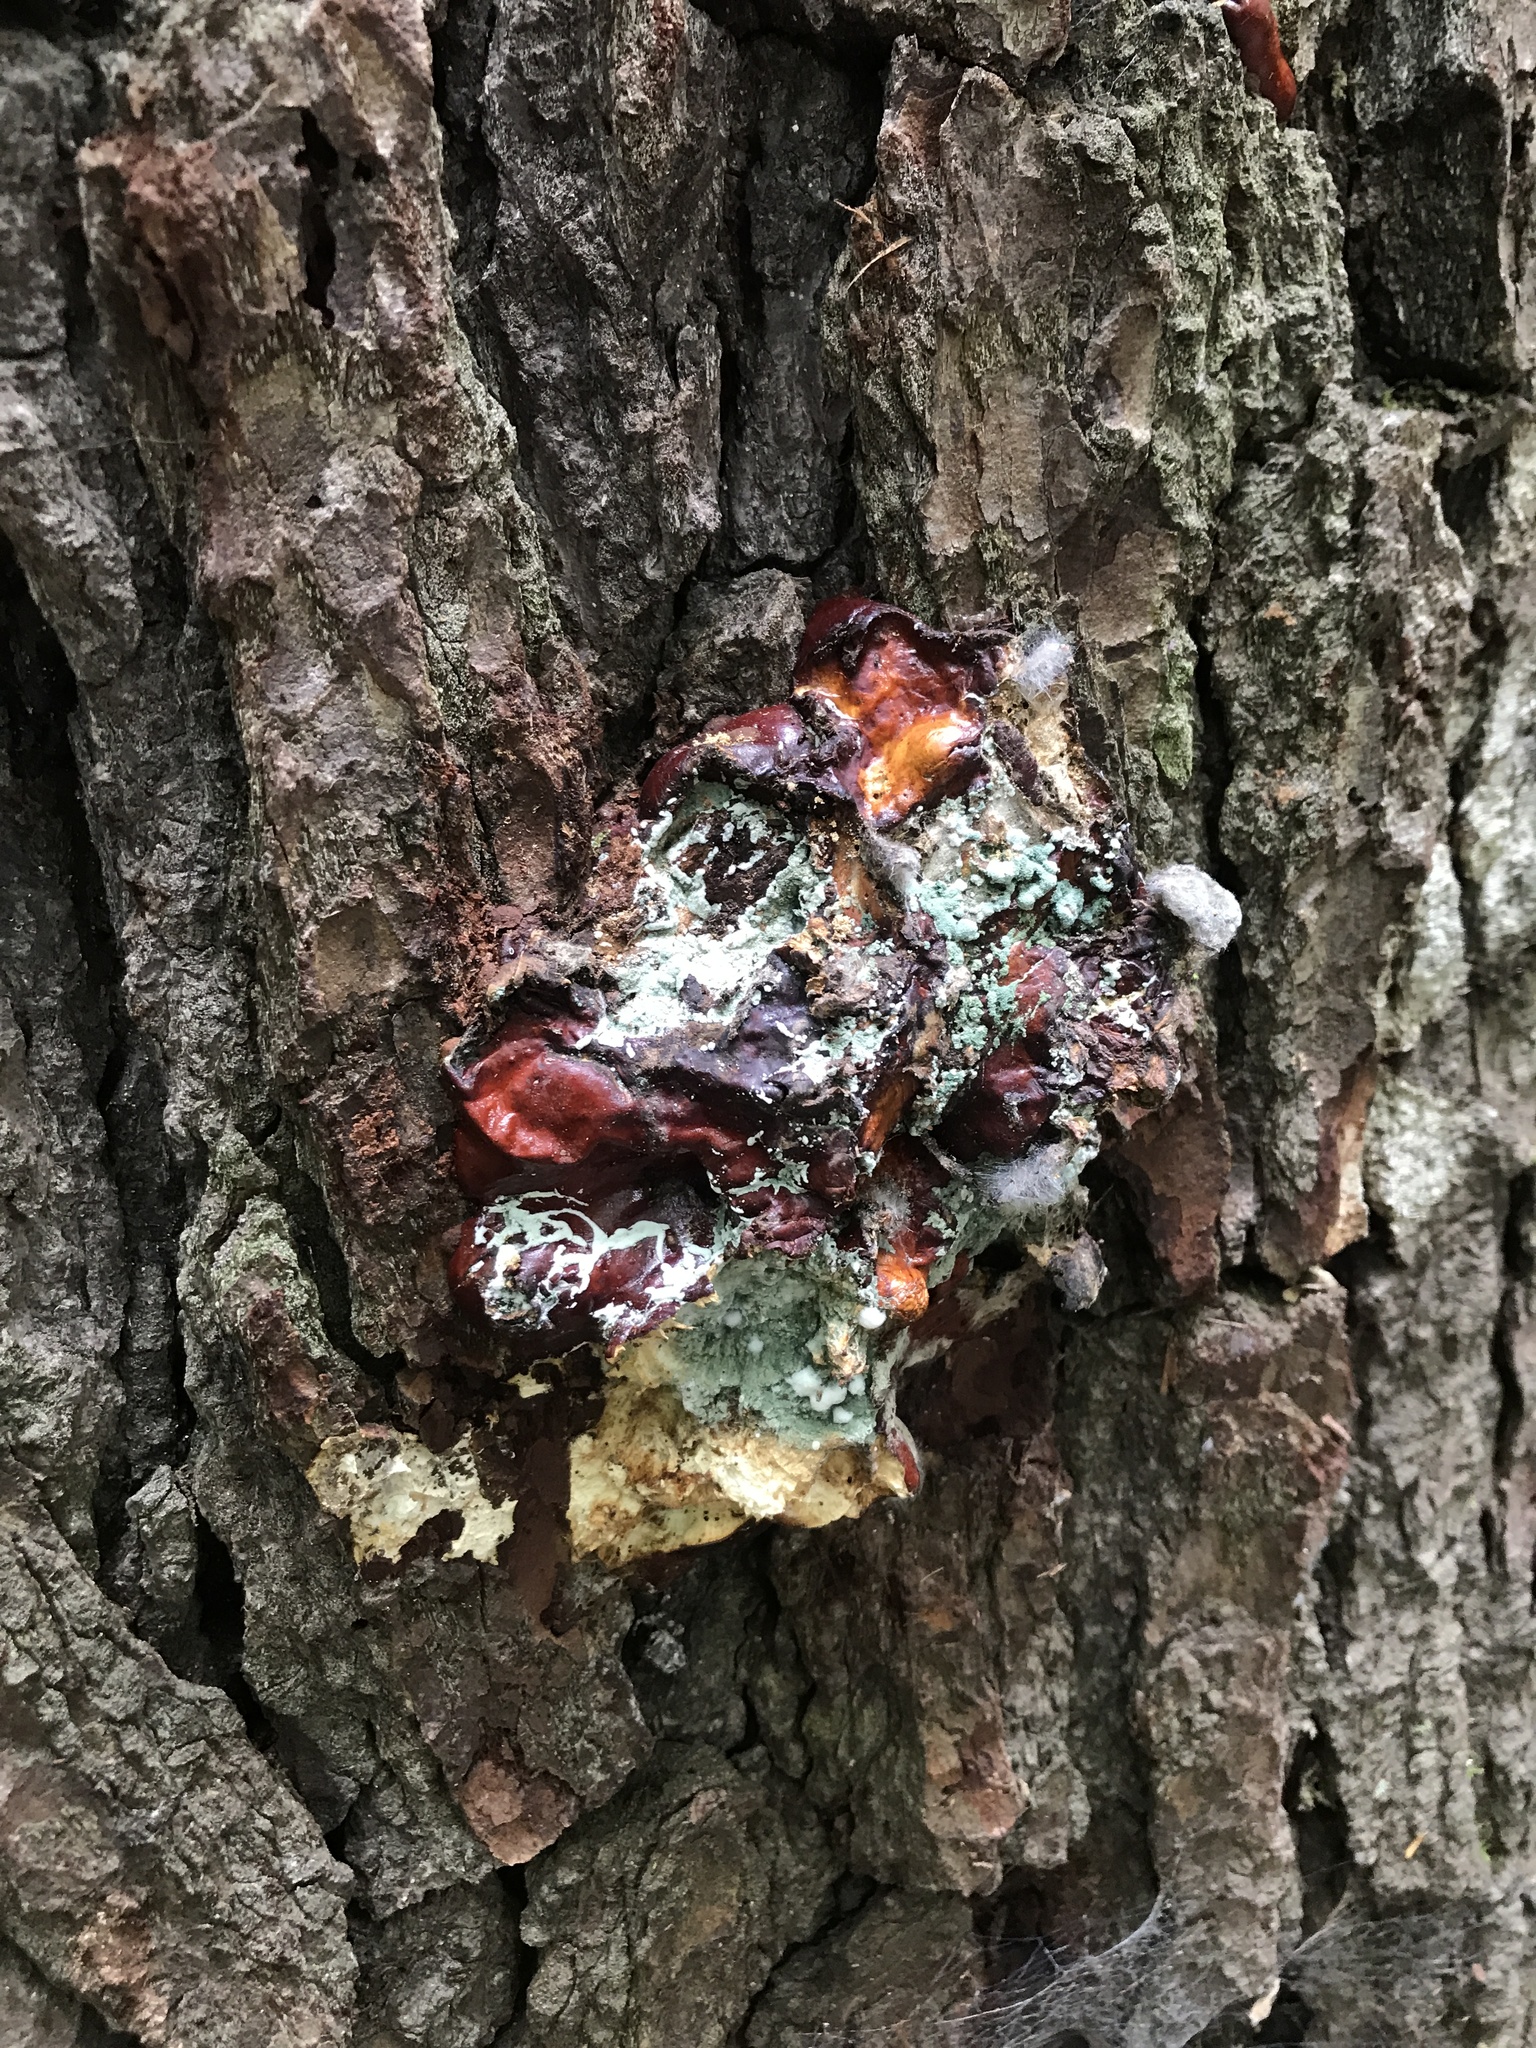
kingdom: Fungi
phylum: Basidiomycota
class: Agaricomycetes
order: Polyporales
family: Polyporaceae
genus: Ganoderma
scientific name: Ganoderma tsugae
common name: Hemlock varnish shelf
